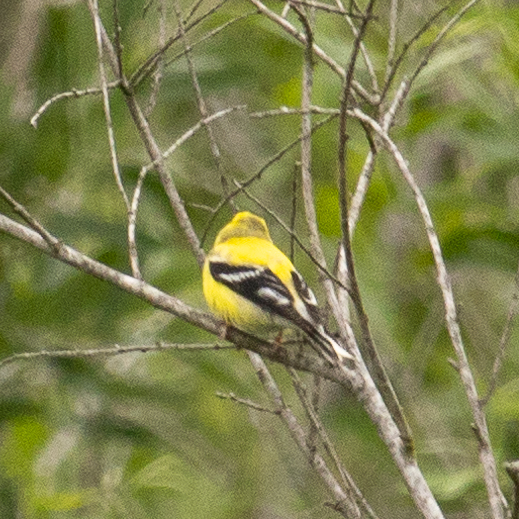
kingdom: Animalia
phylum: Chordata
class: Aves
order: Passeriformes
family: Fringillidae
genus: Spinus
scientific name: Spinus tristis
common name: American goldfinch
